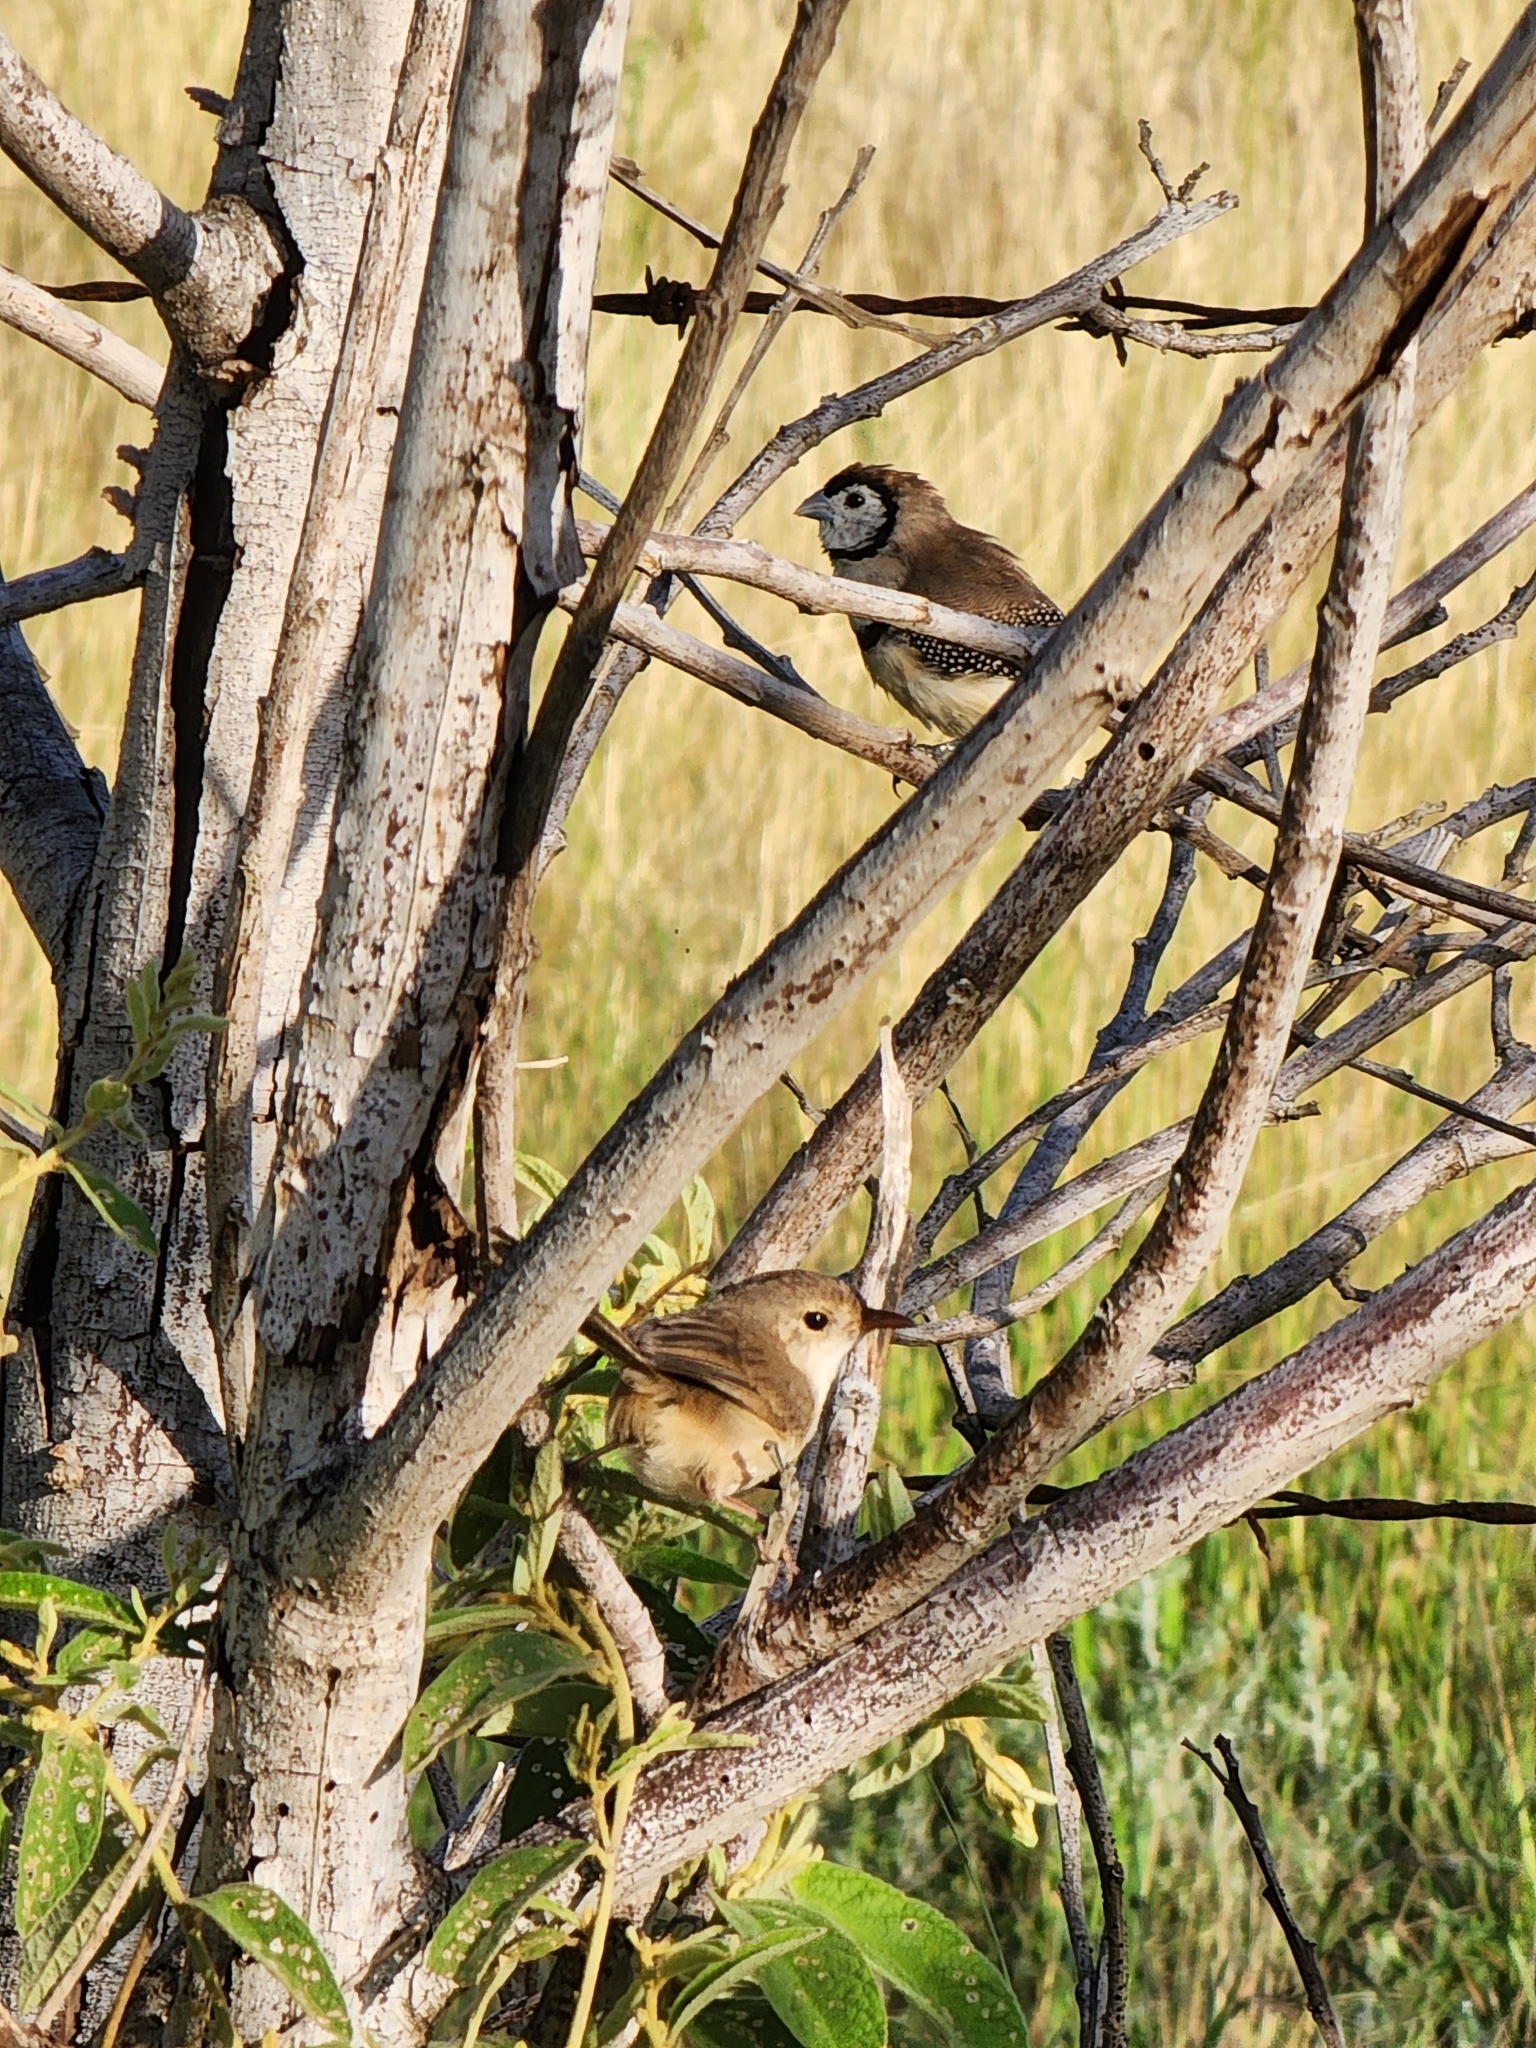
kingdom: Animalia
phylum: Chordata
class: Aves
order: Passeriformes
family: Estrildidae
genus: Taeniopygia
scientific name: Taeniopygia bichenovii
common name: Double-barred finch
